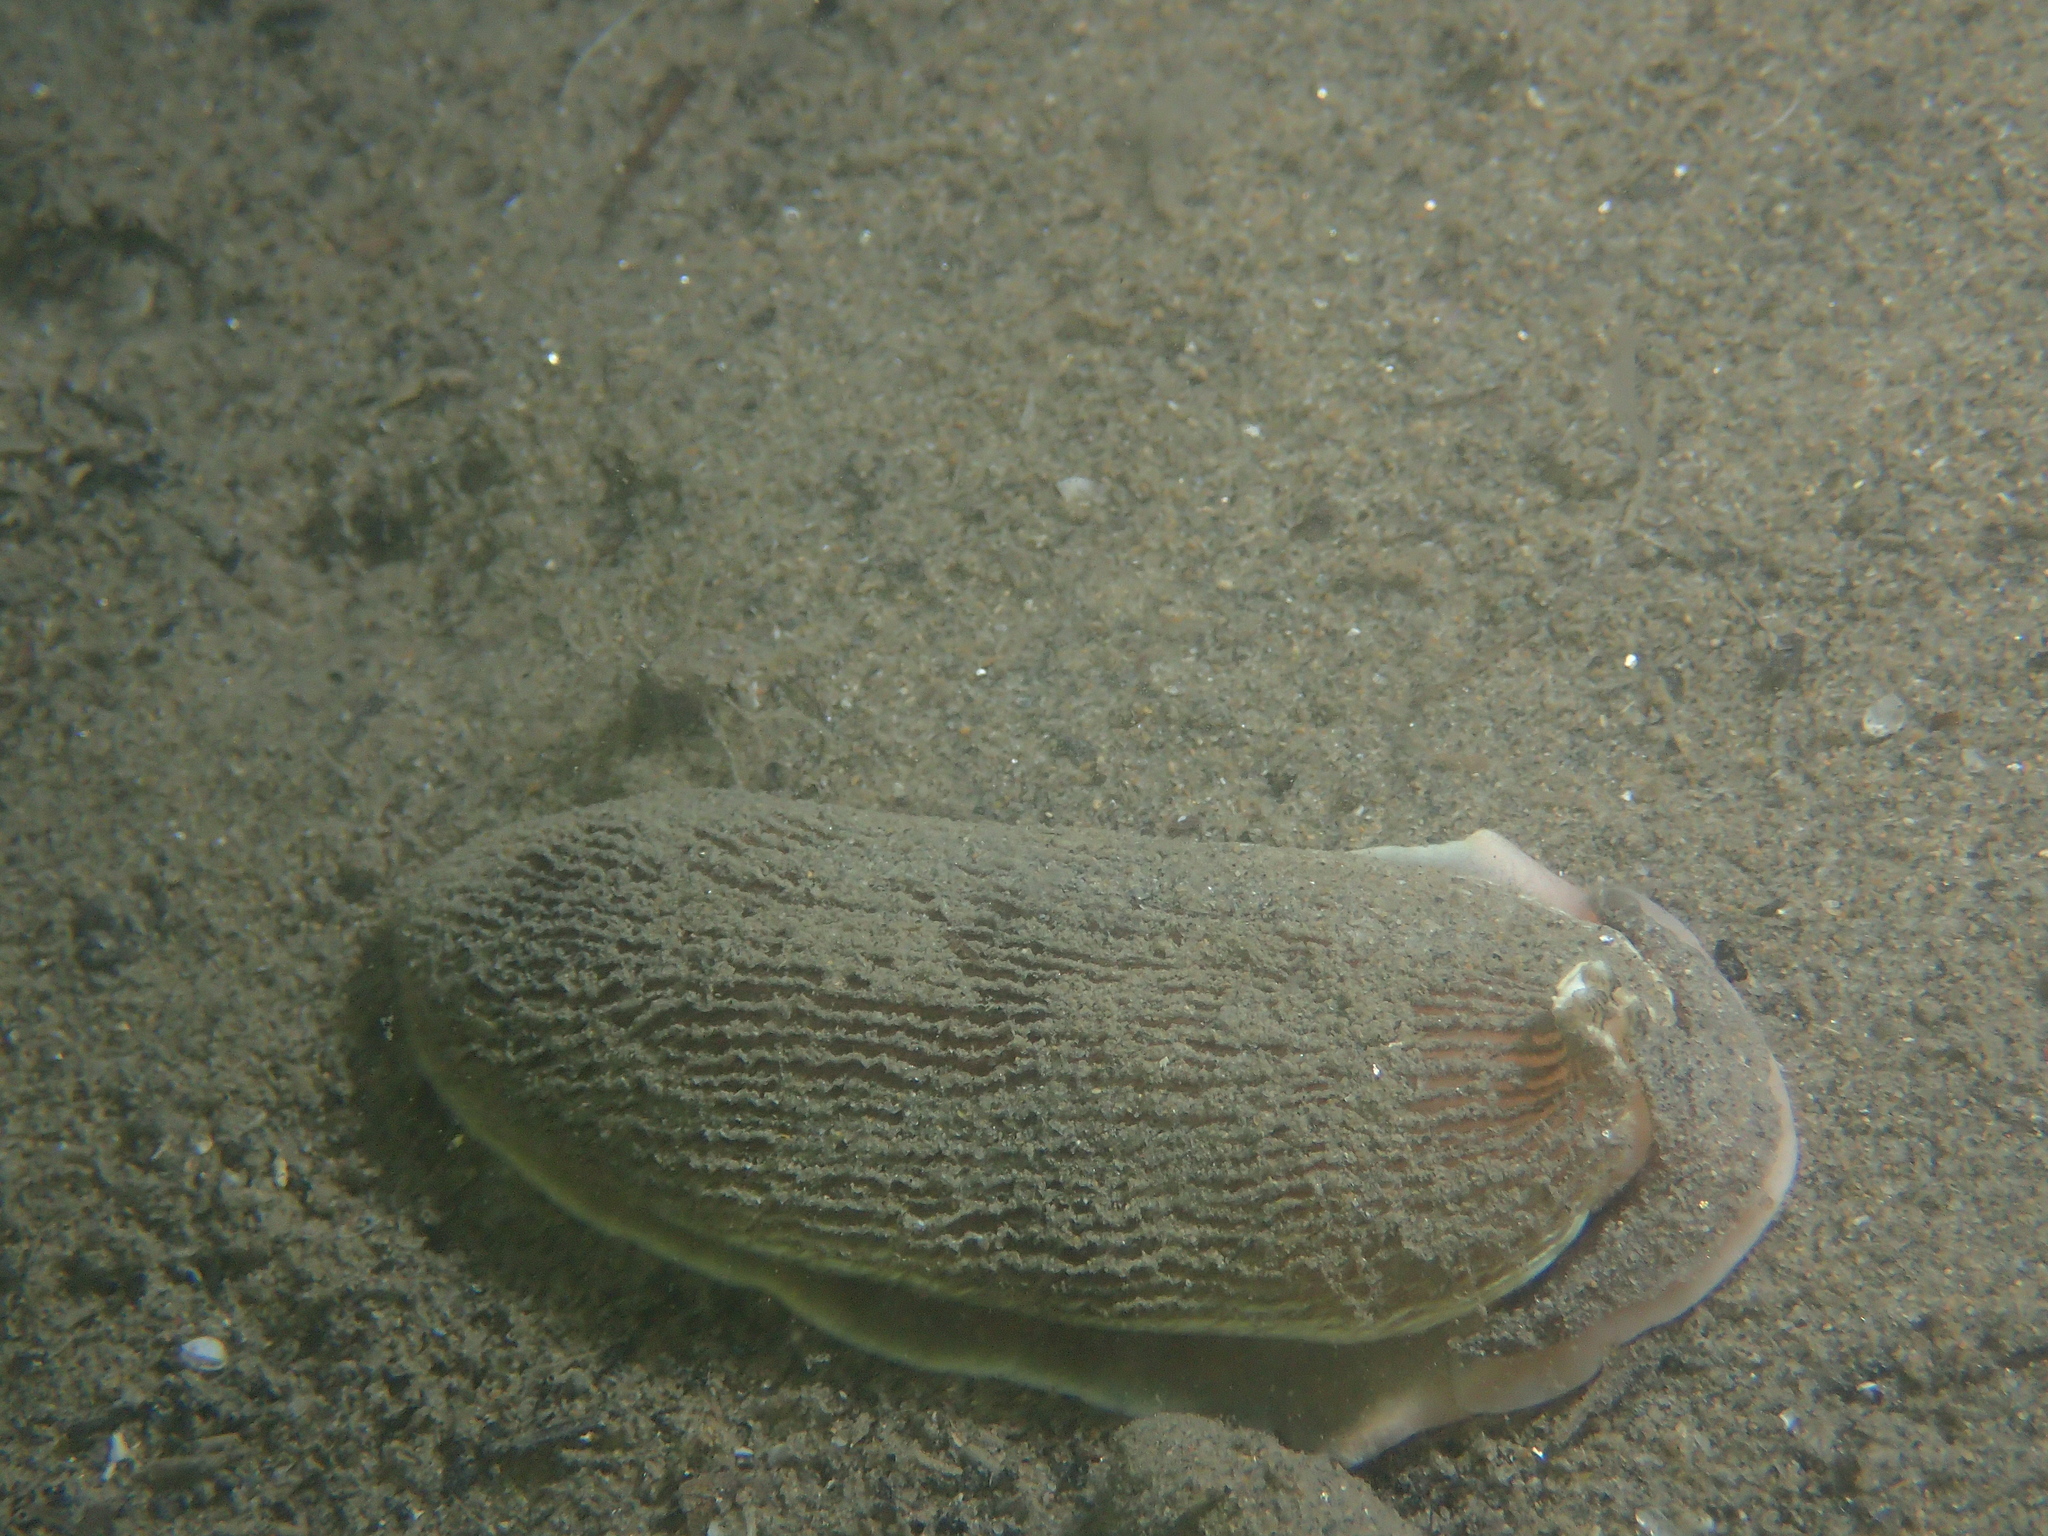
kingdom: Animalia
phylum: Mollusca
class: Gastropoda
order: Nudibranchia
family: Arminidae
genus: Armina
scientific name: Armina tigrina
